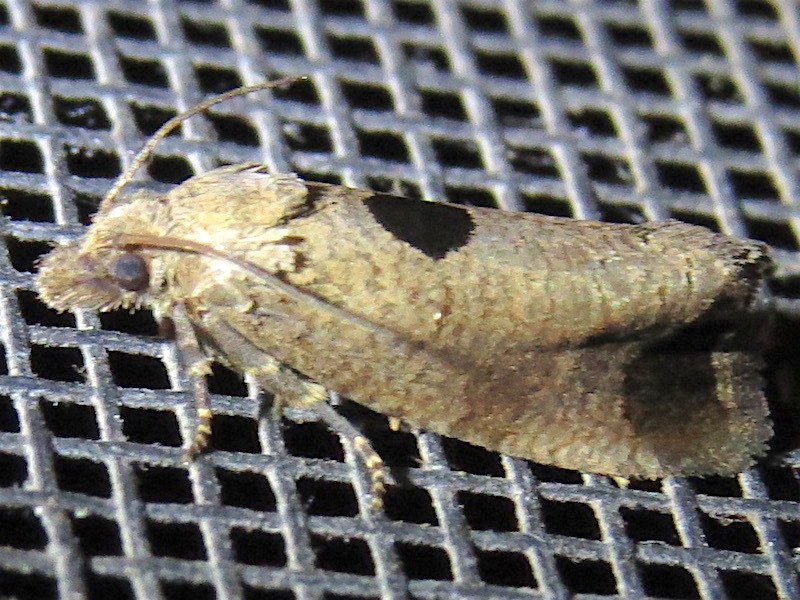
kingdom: Animalia
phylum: Arthropoda
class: Insecta
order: Lepidoptera
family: Tortricidae
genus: Epiblema
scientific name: Epiblema tandana
